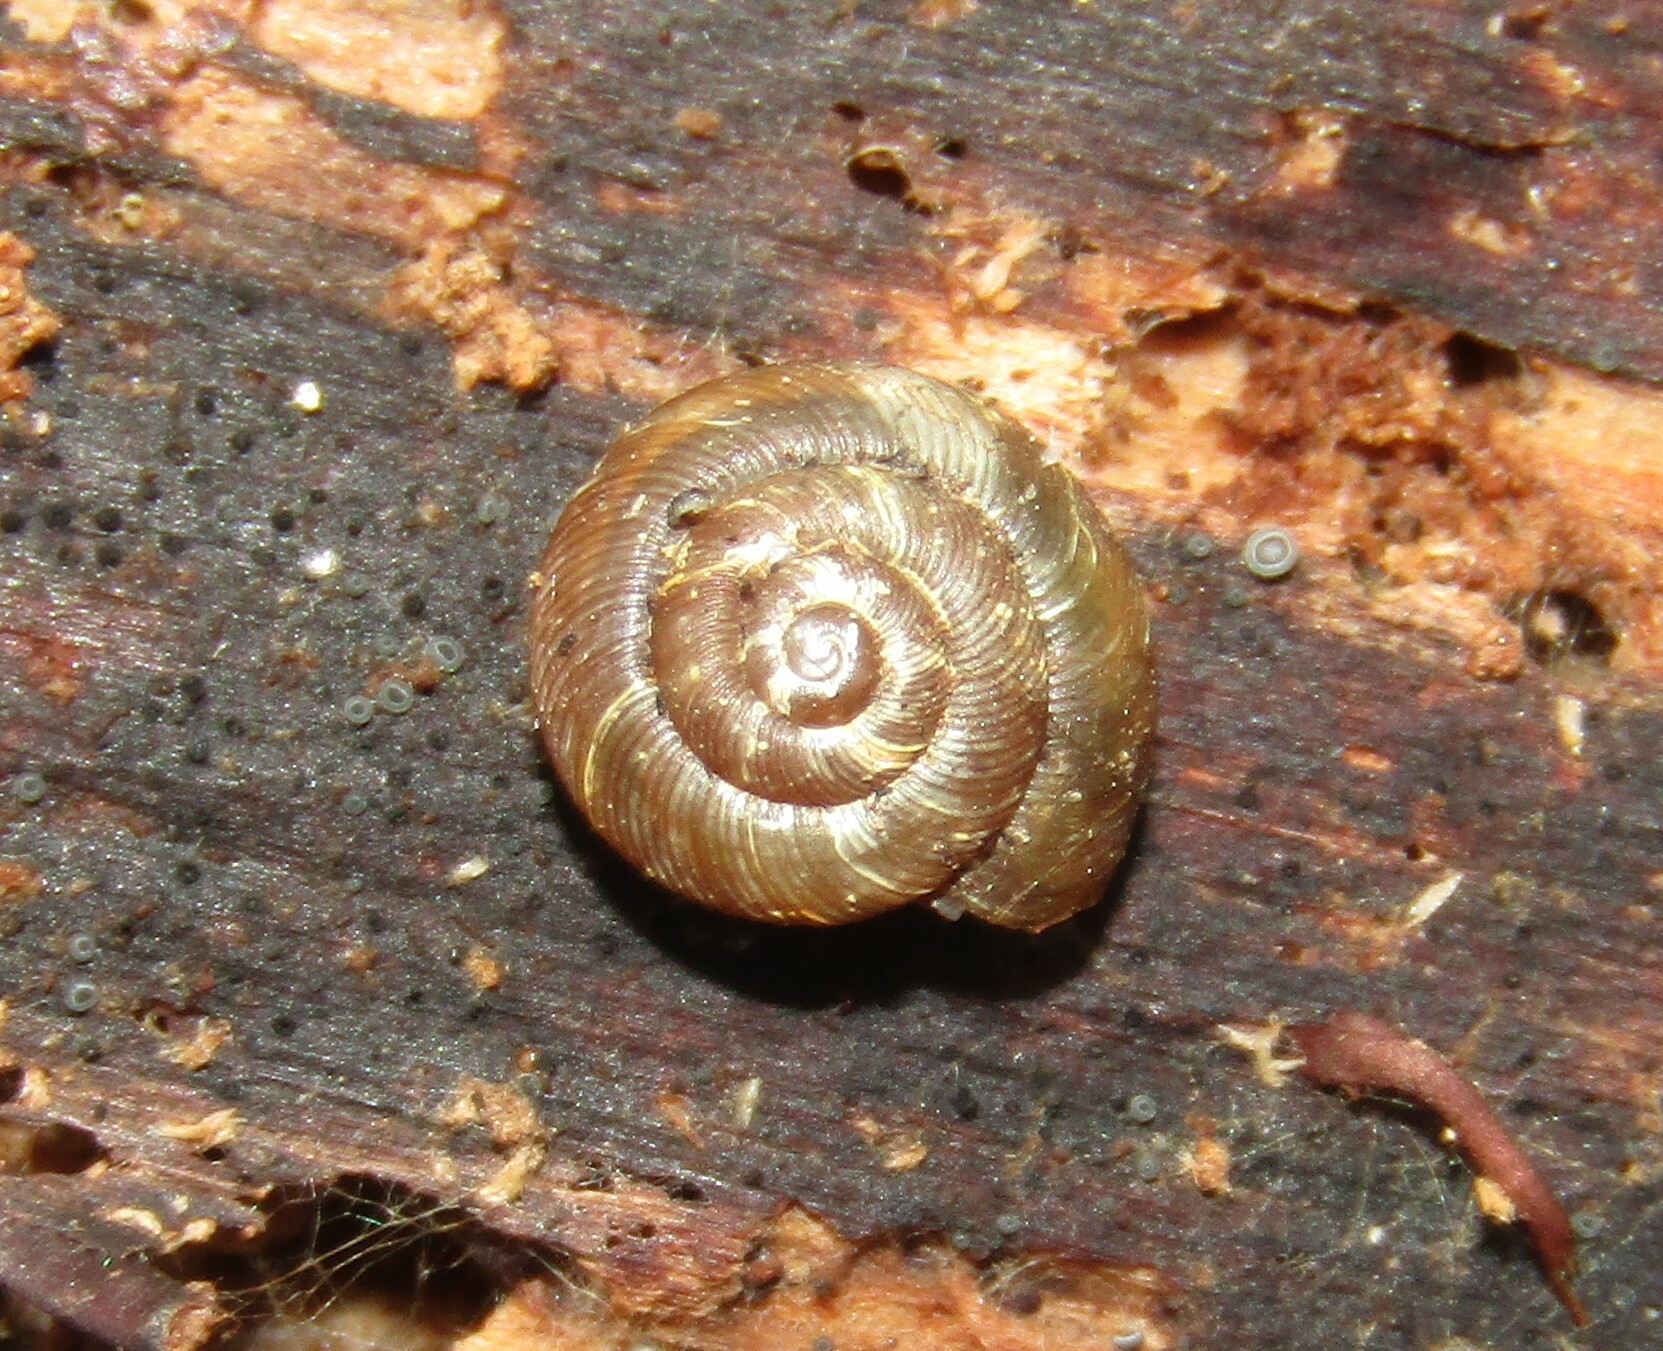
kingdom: Animalia
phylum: Mollusca
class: Gastropoda
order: Stylommatophora
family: Discidae
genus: Discus
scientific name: Discus ruderatus
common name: Brown disc snail
